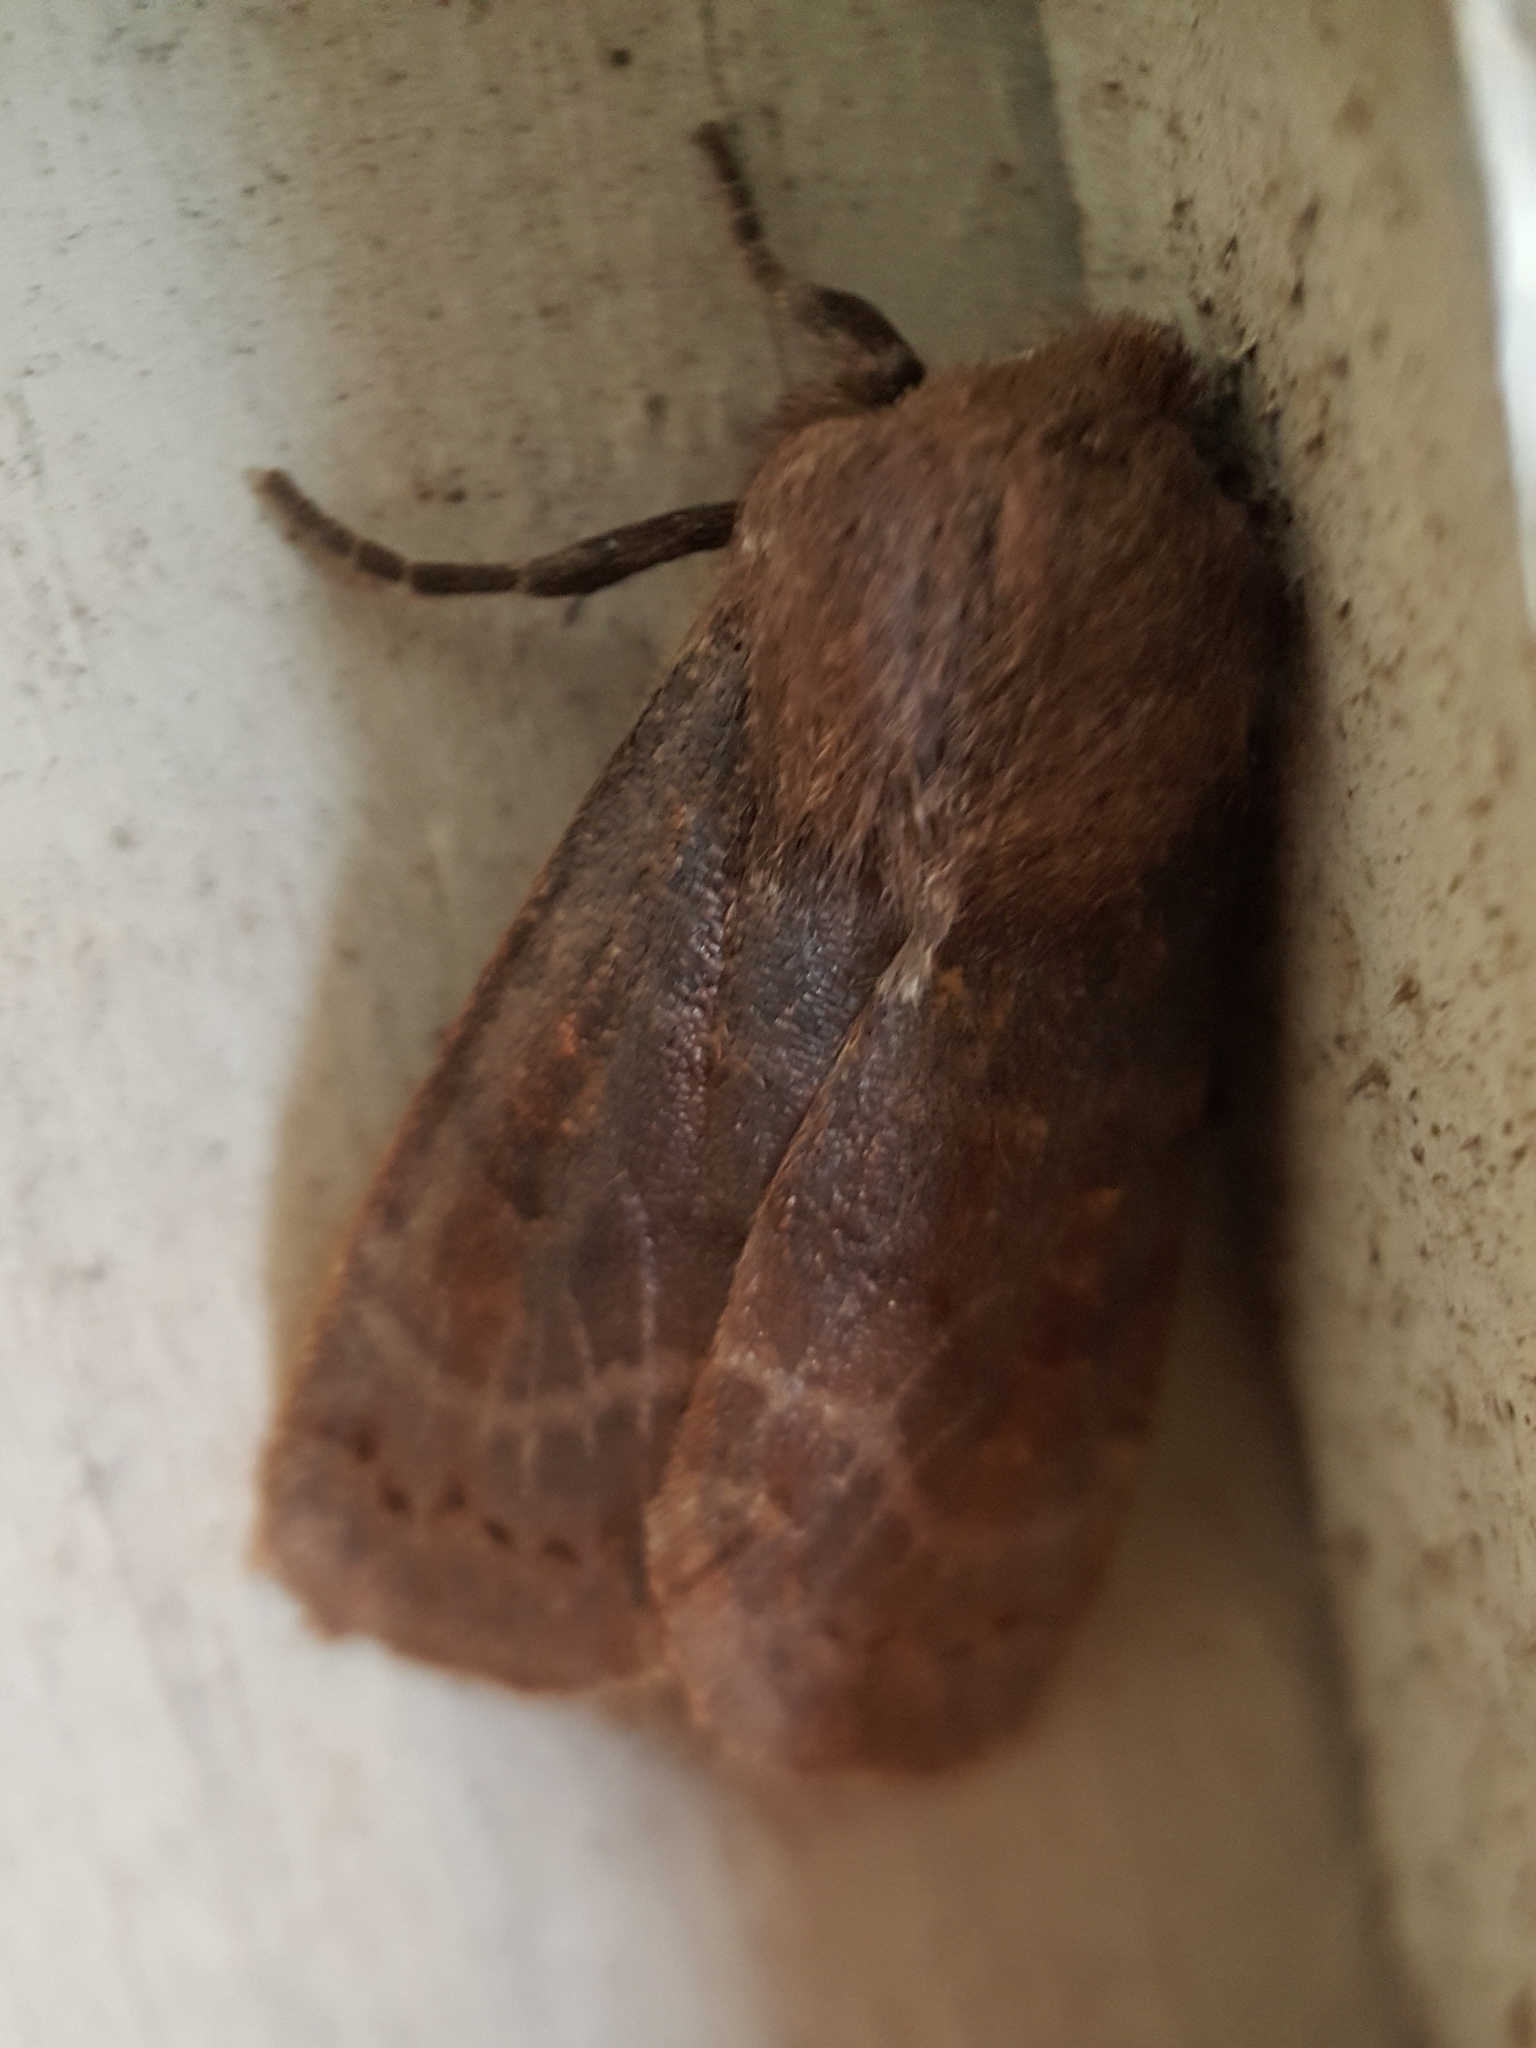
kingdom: Animalia
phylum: Arthropoda
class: Insecta
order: Lepidoptera
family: Noctuidae
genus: Homoglaea
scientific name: Homoglaea hircina
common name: Goat sallow
